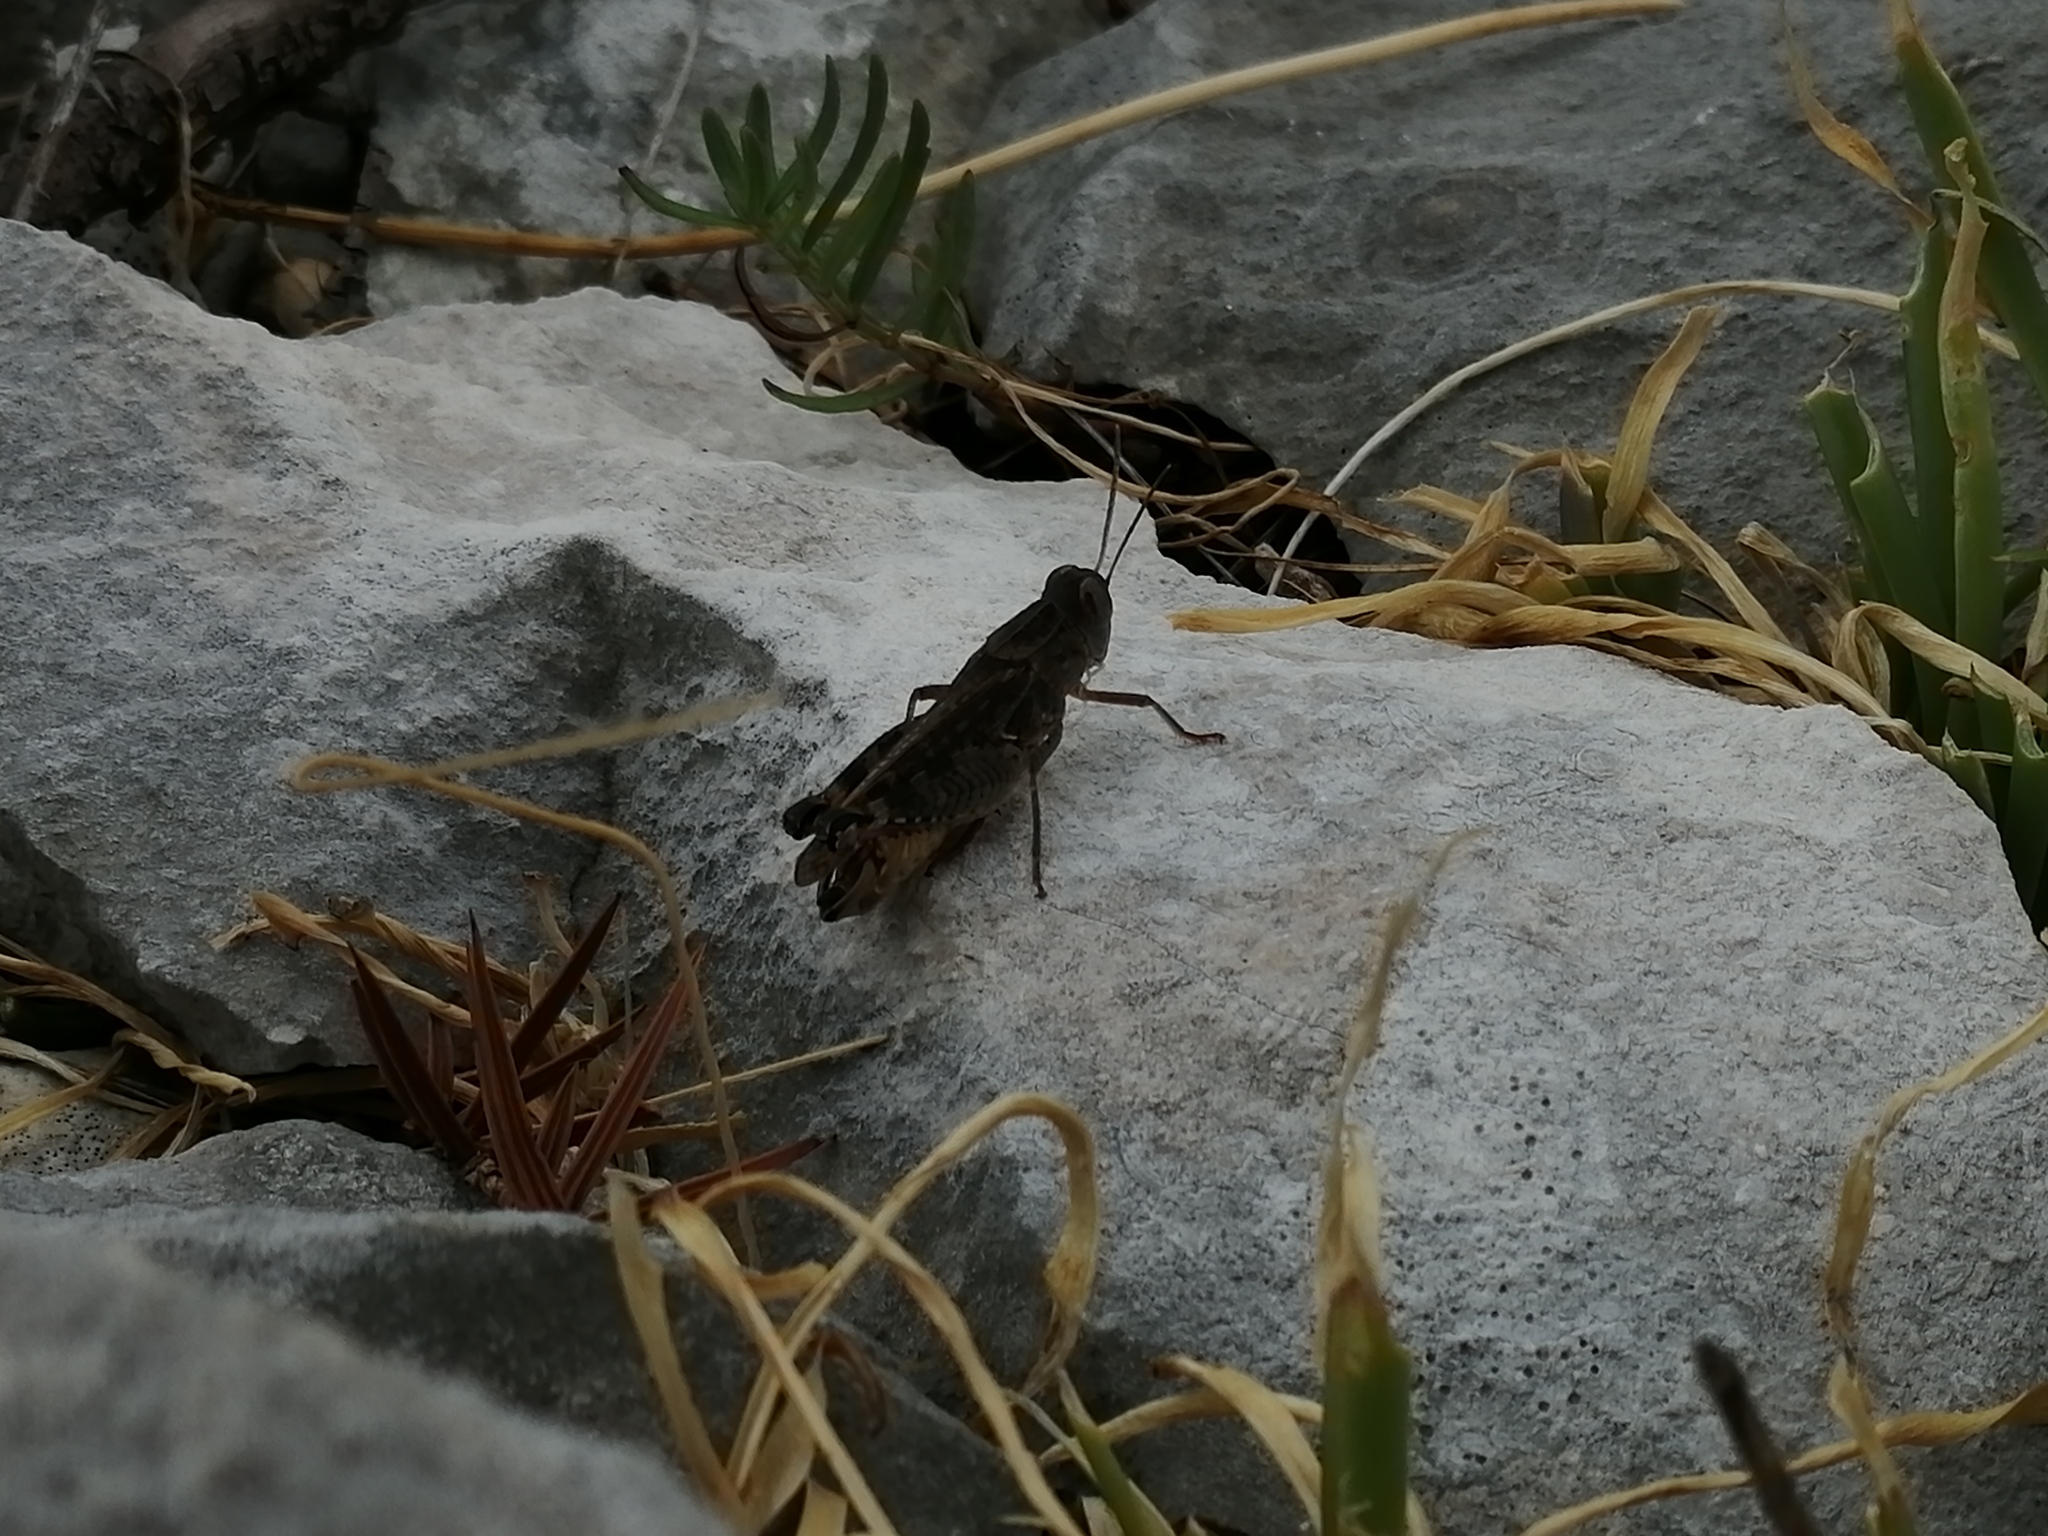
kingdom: Animalia
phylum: Arthropoda
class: Insecta
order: Orthoptera
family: Acrididae
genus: Calliptamus
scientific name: Calliptamus italicus
